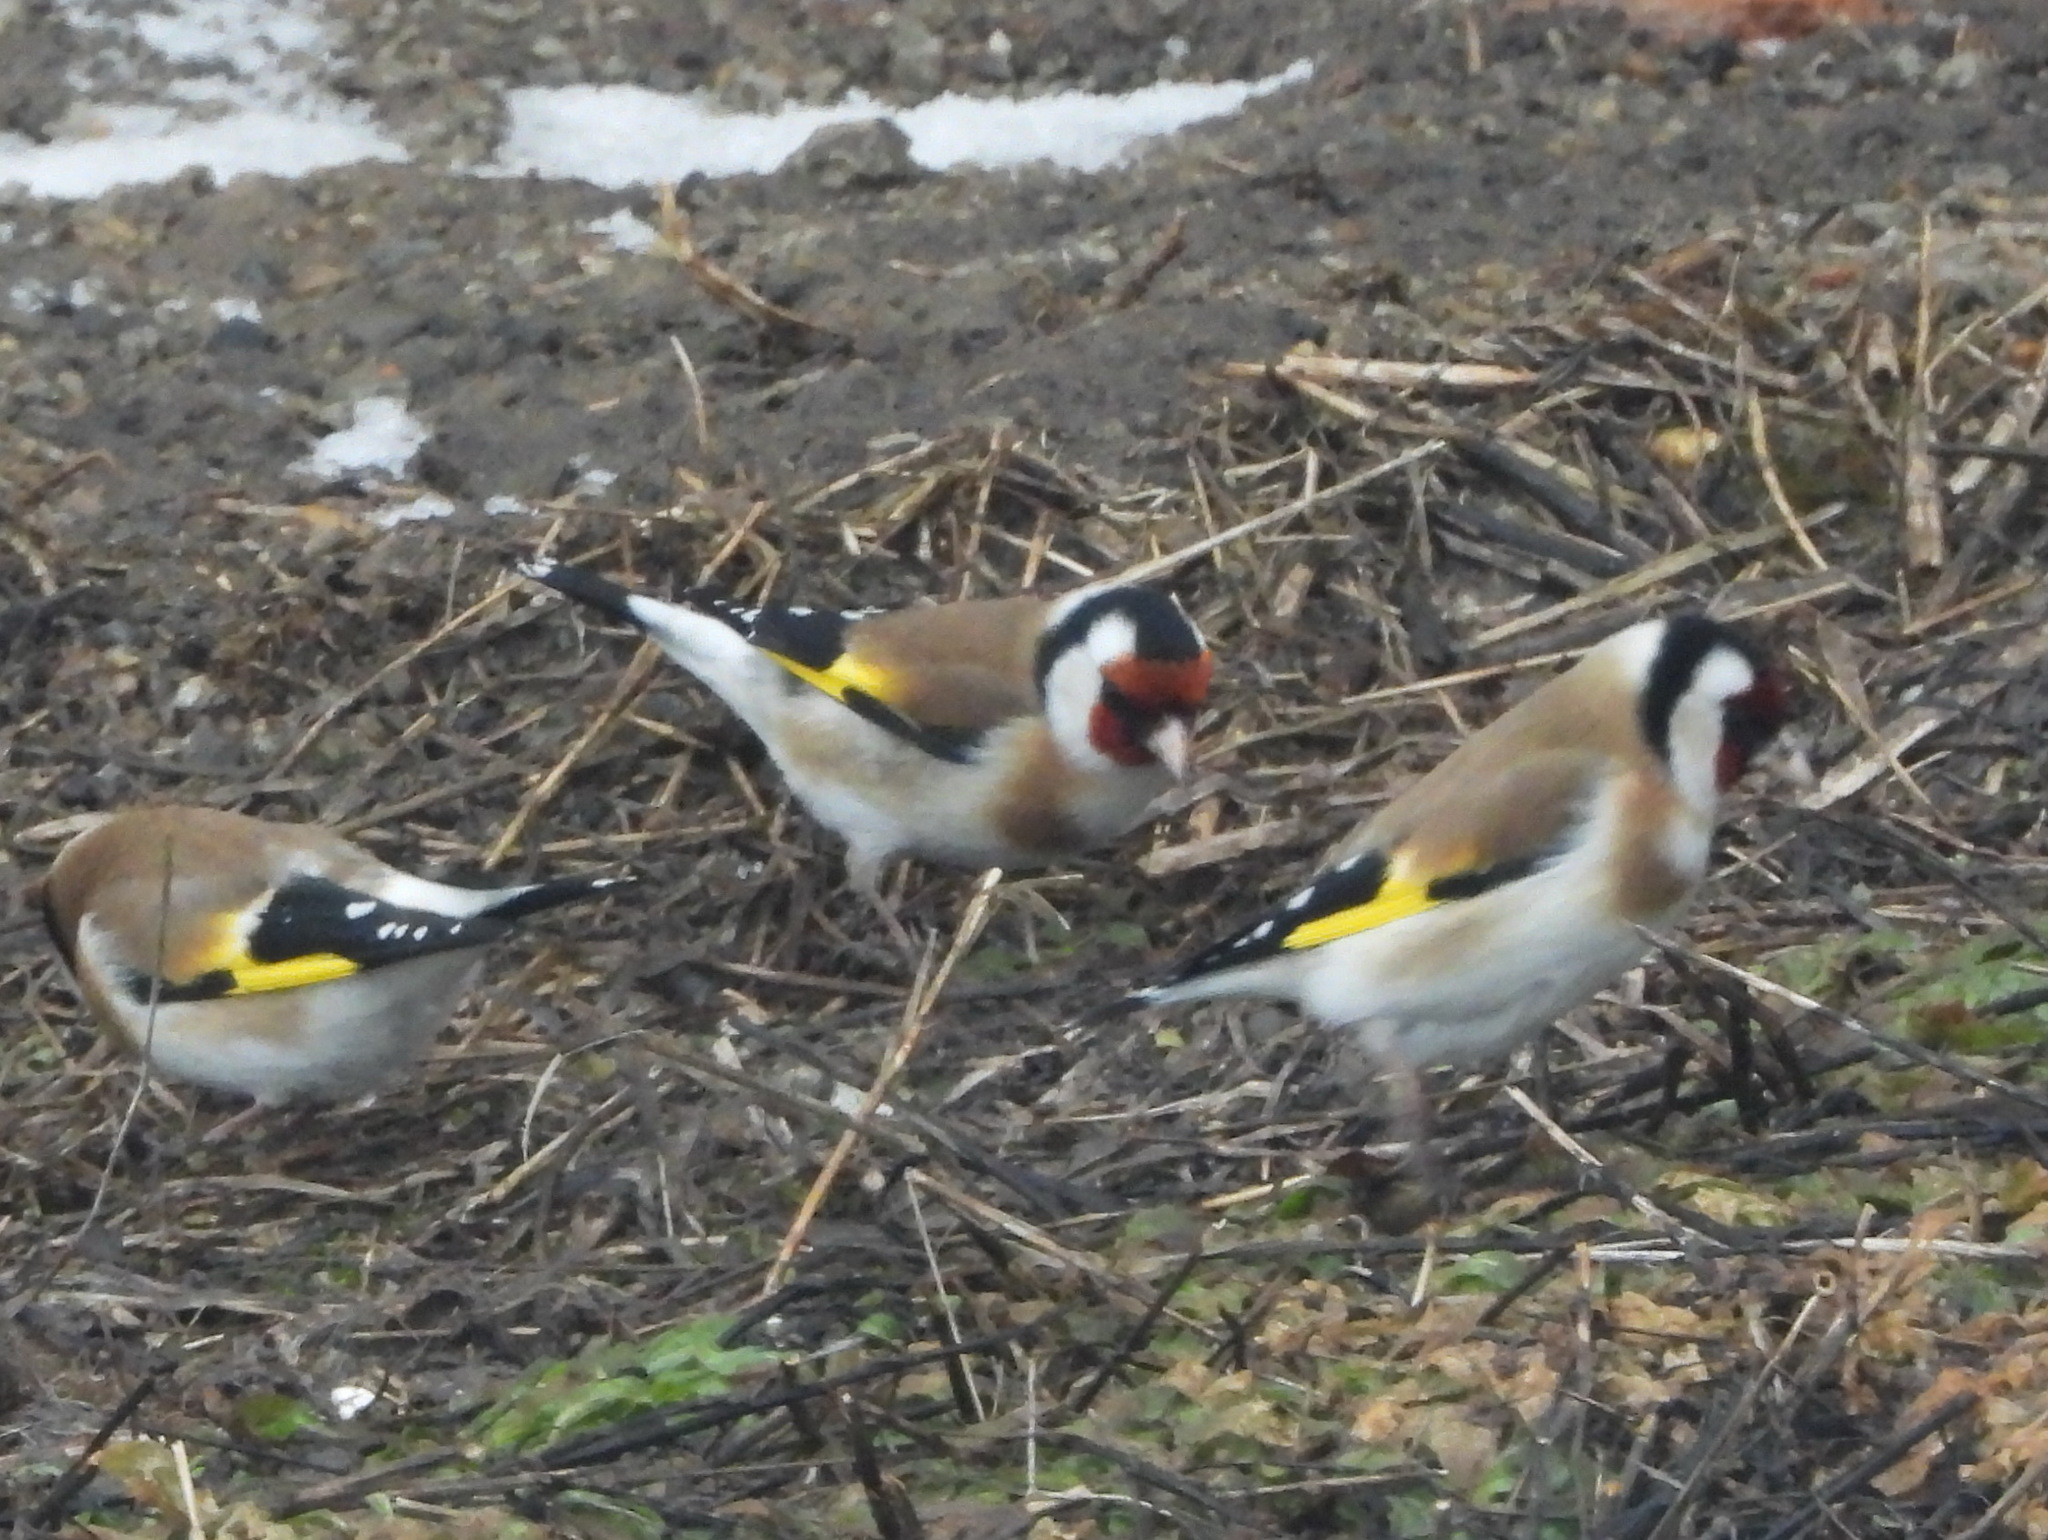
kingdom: Animalia
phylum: Chordata
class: Aves
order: Passeriformes
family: Fringillidae
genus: Carduelis
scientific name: Carduelis carduelis
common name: European goldfinch
